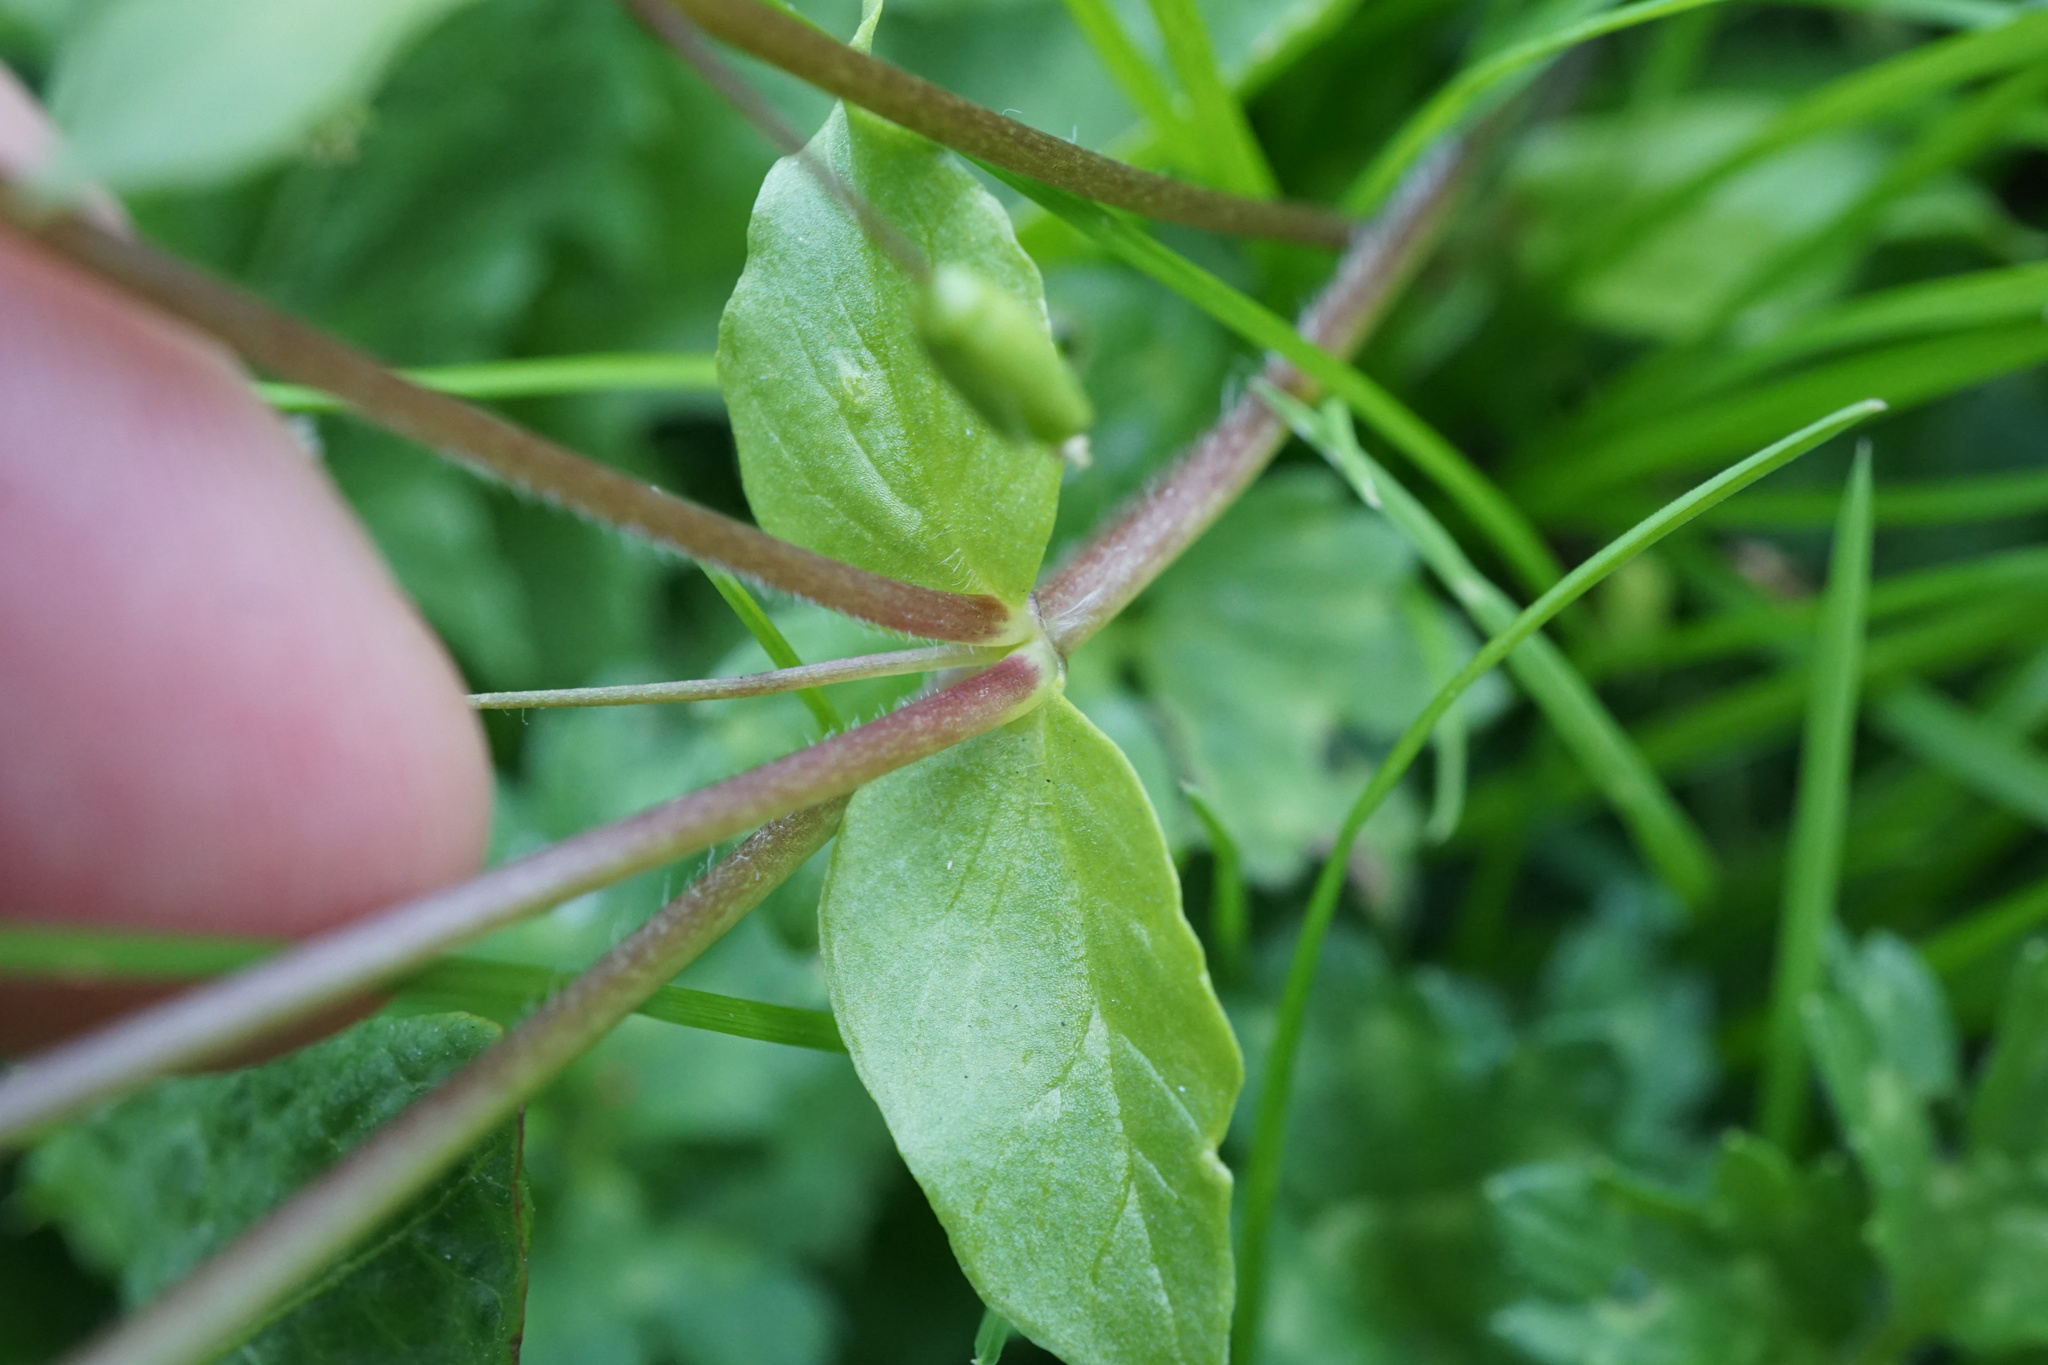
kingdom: Plantae
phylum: Tracheophyta
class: Magnoliopsida
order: Caryophyllales
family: Caryophyllaceae
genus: Stellaria
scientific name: Stellaria media
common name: Common chickweed
